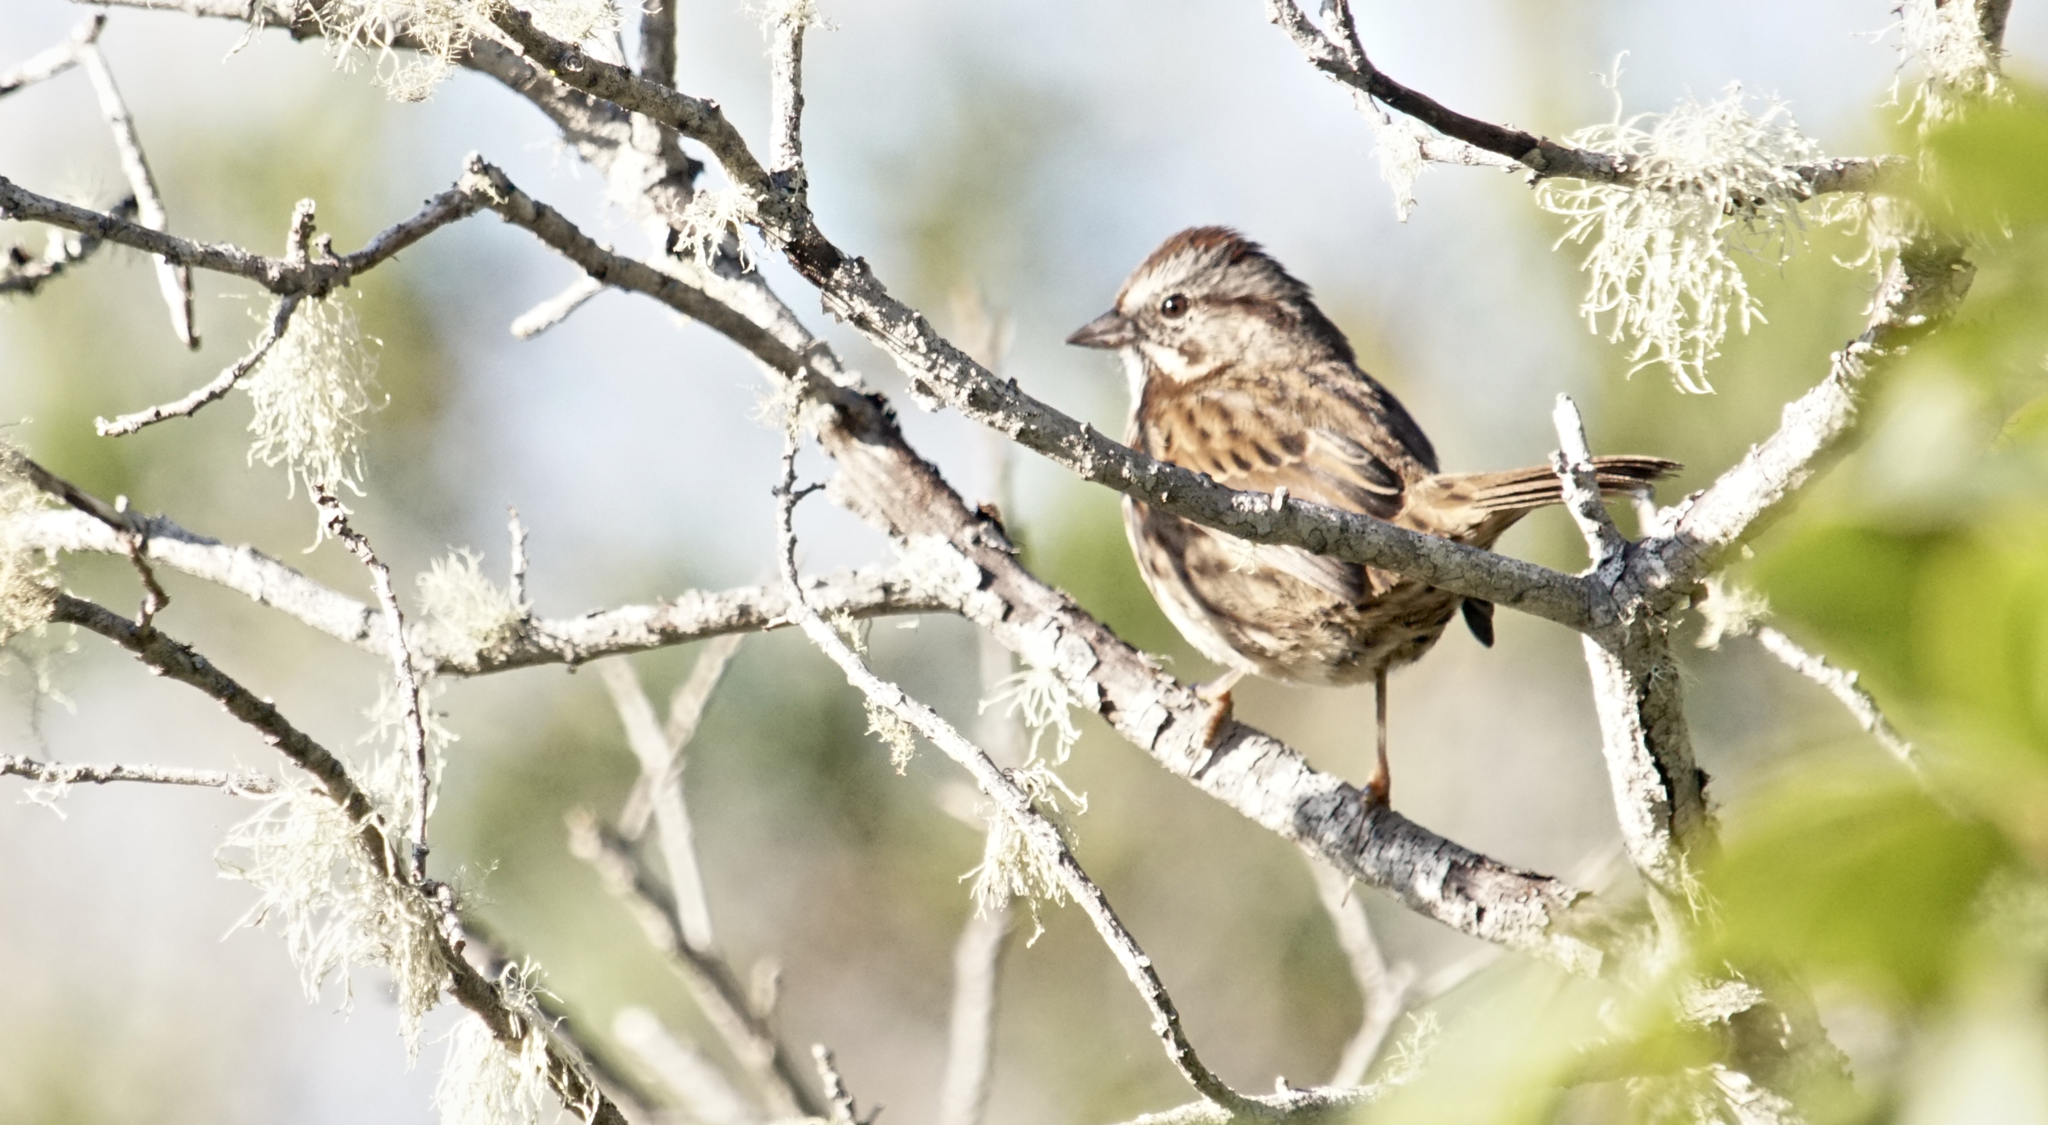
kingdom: Animalia
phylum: Chordata
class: Aves
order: Passeriformes
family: Passerellidae
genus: Melospiza
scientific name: Melospiza melodia
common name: Song sparrow
